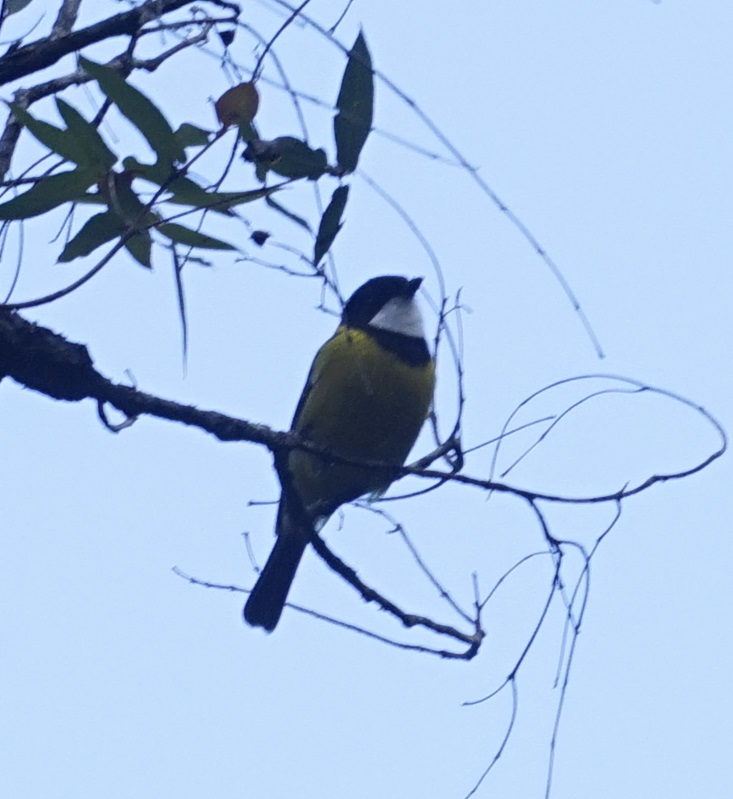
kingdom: Animalia
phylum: Chordata
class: Aves
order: Passeriformes
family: Pachycephalidae
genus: Pachycephala
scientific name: Pachycephala pectoralis
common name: Australian golden whistler
